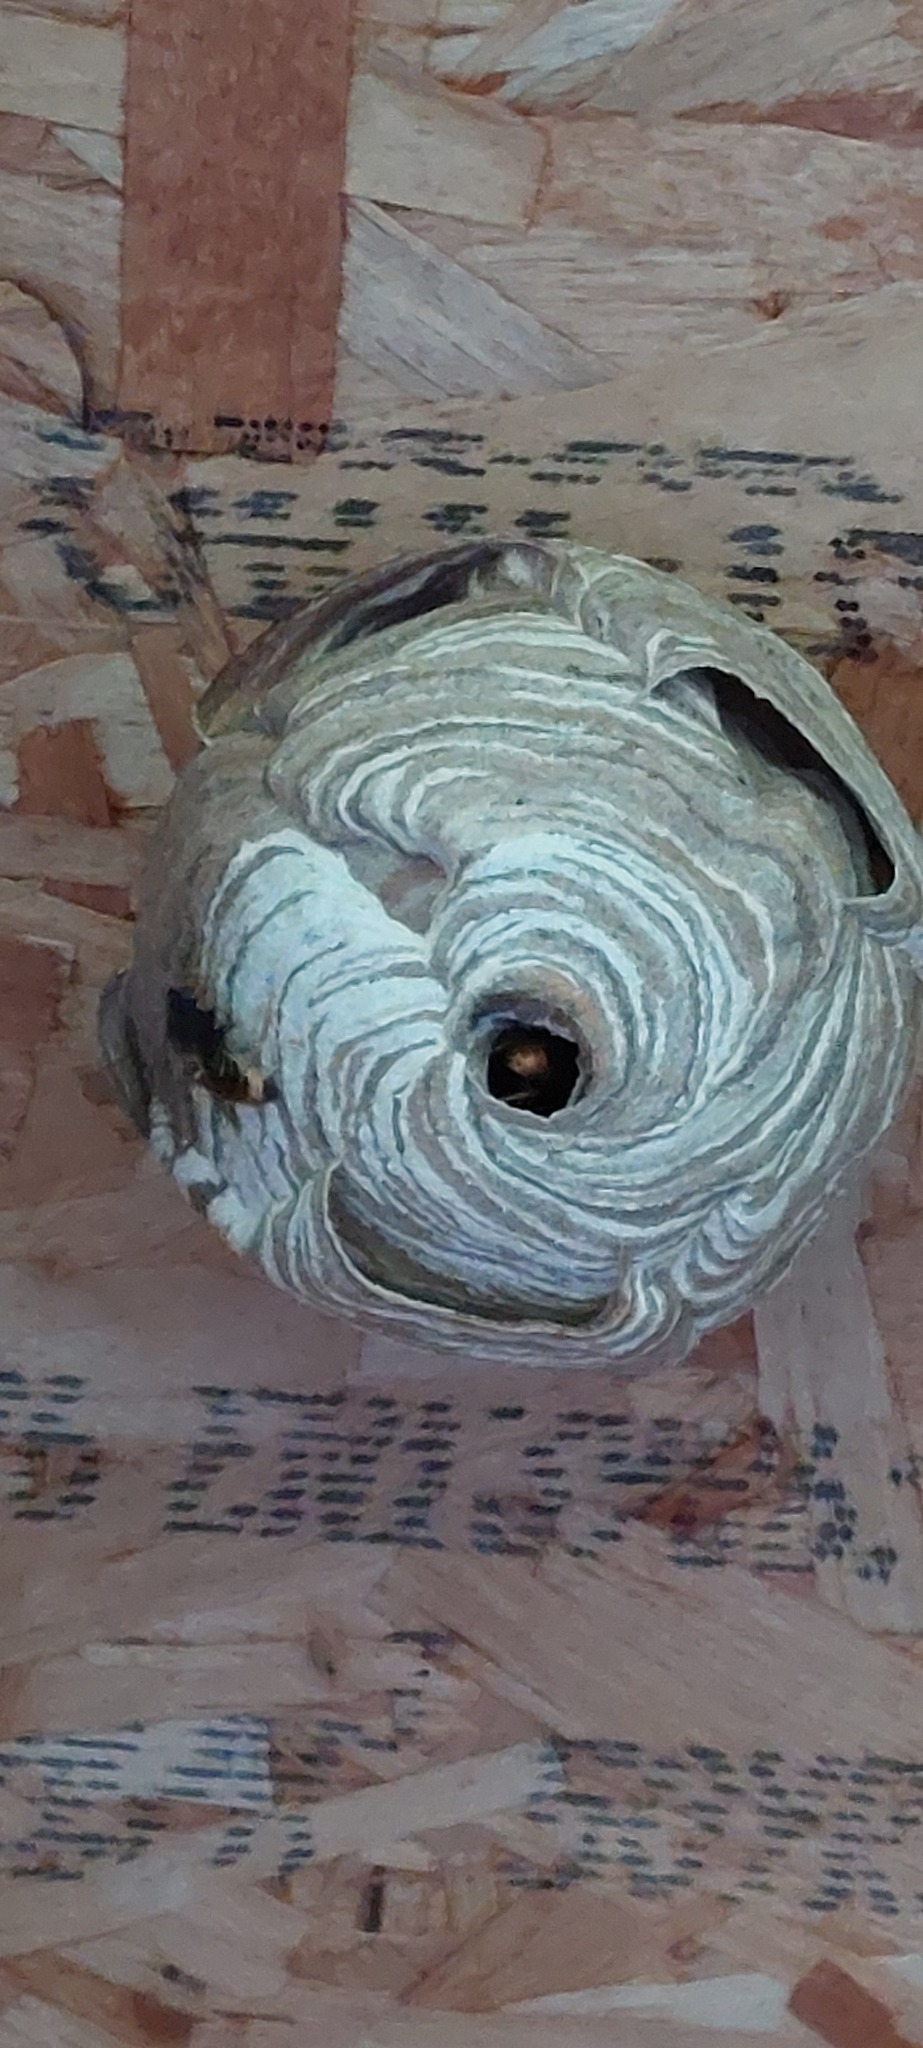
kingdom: Animalia
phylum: Arthropoda
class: Insecta
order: Hymenoptera
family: Vespidae
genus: Vespa
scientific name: Vespa velutina
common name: Asian hornet
